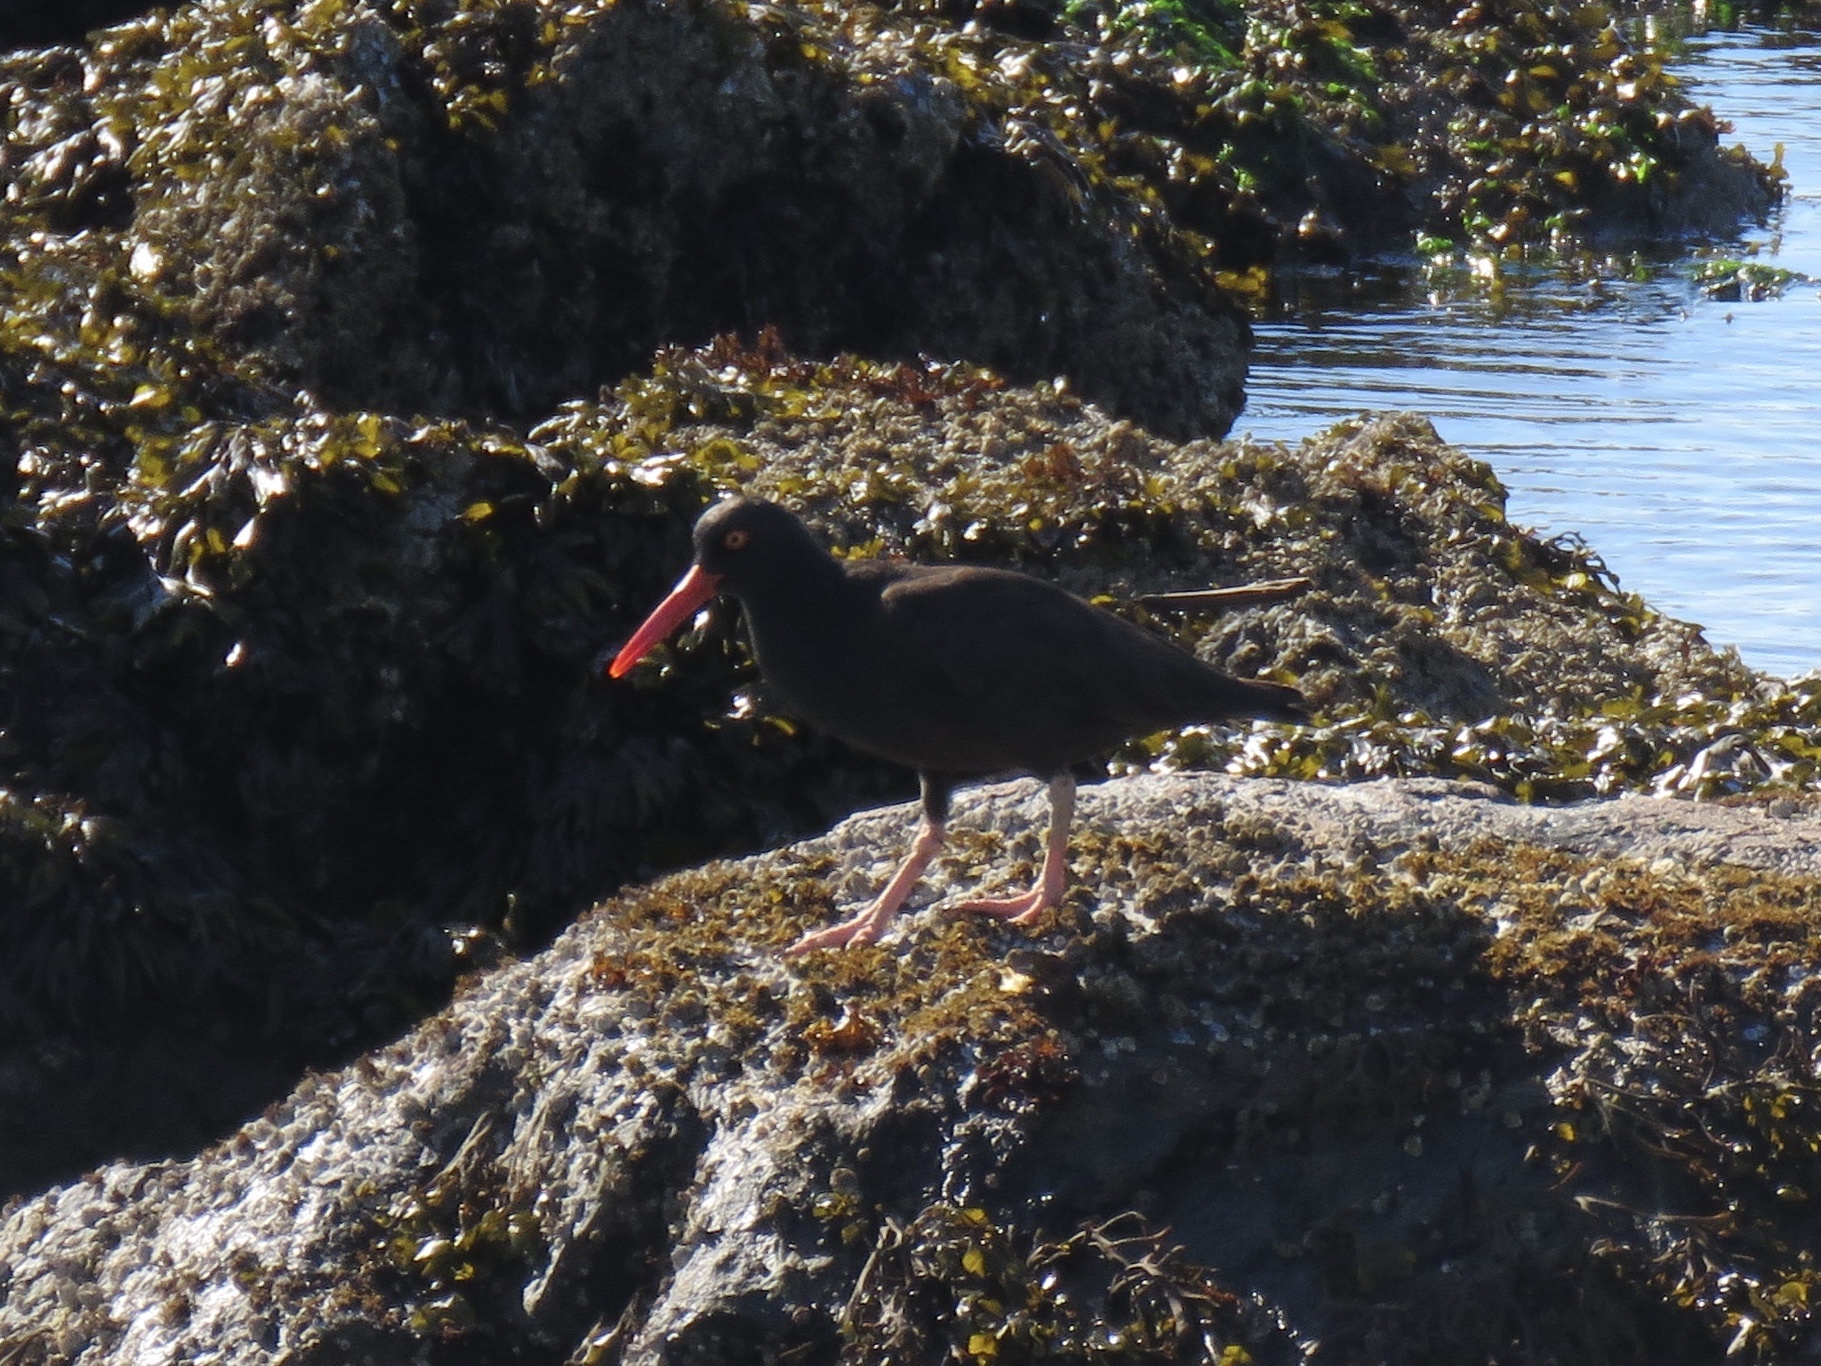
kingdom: Animalia
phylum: Chordata
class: Aves
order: Charadriiformes
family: Haematopodidae
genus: Haematopus
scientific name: Haematopus bachmani
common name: Black oystercatcher
